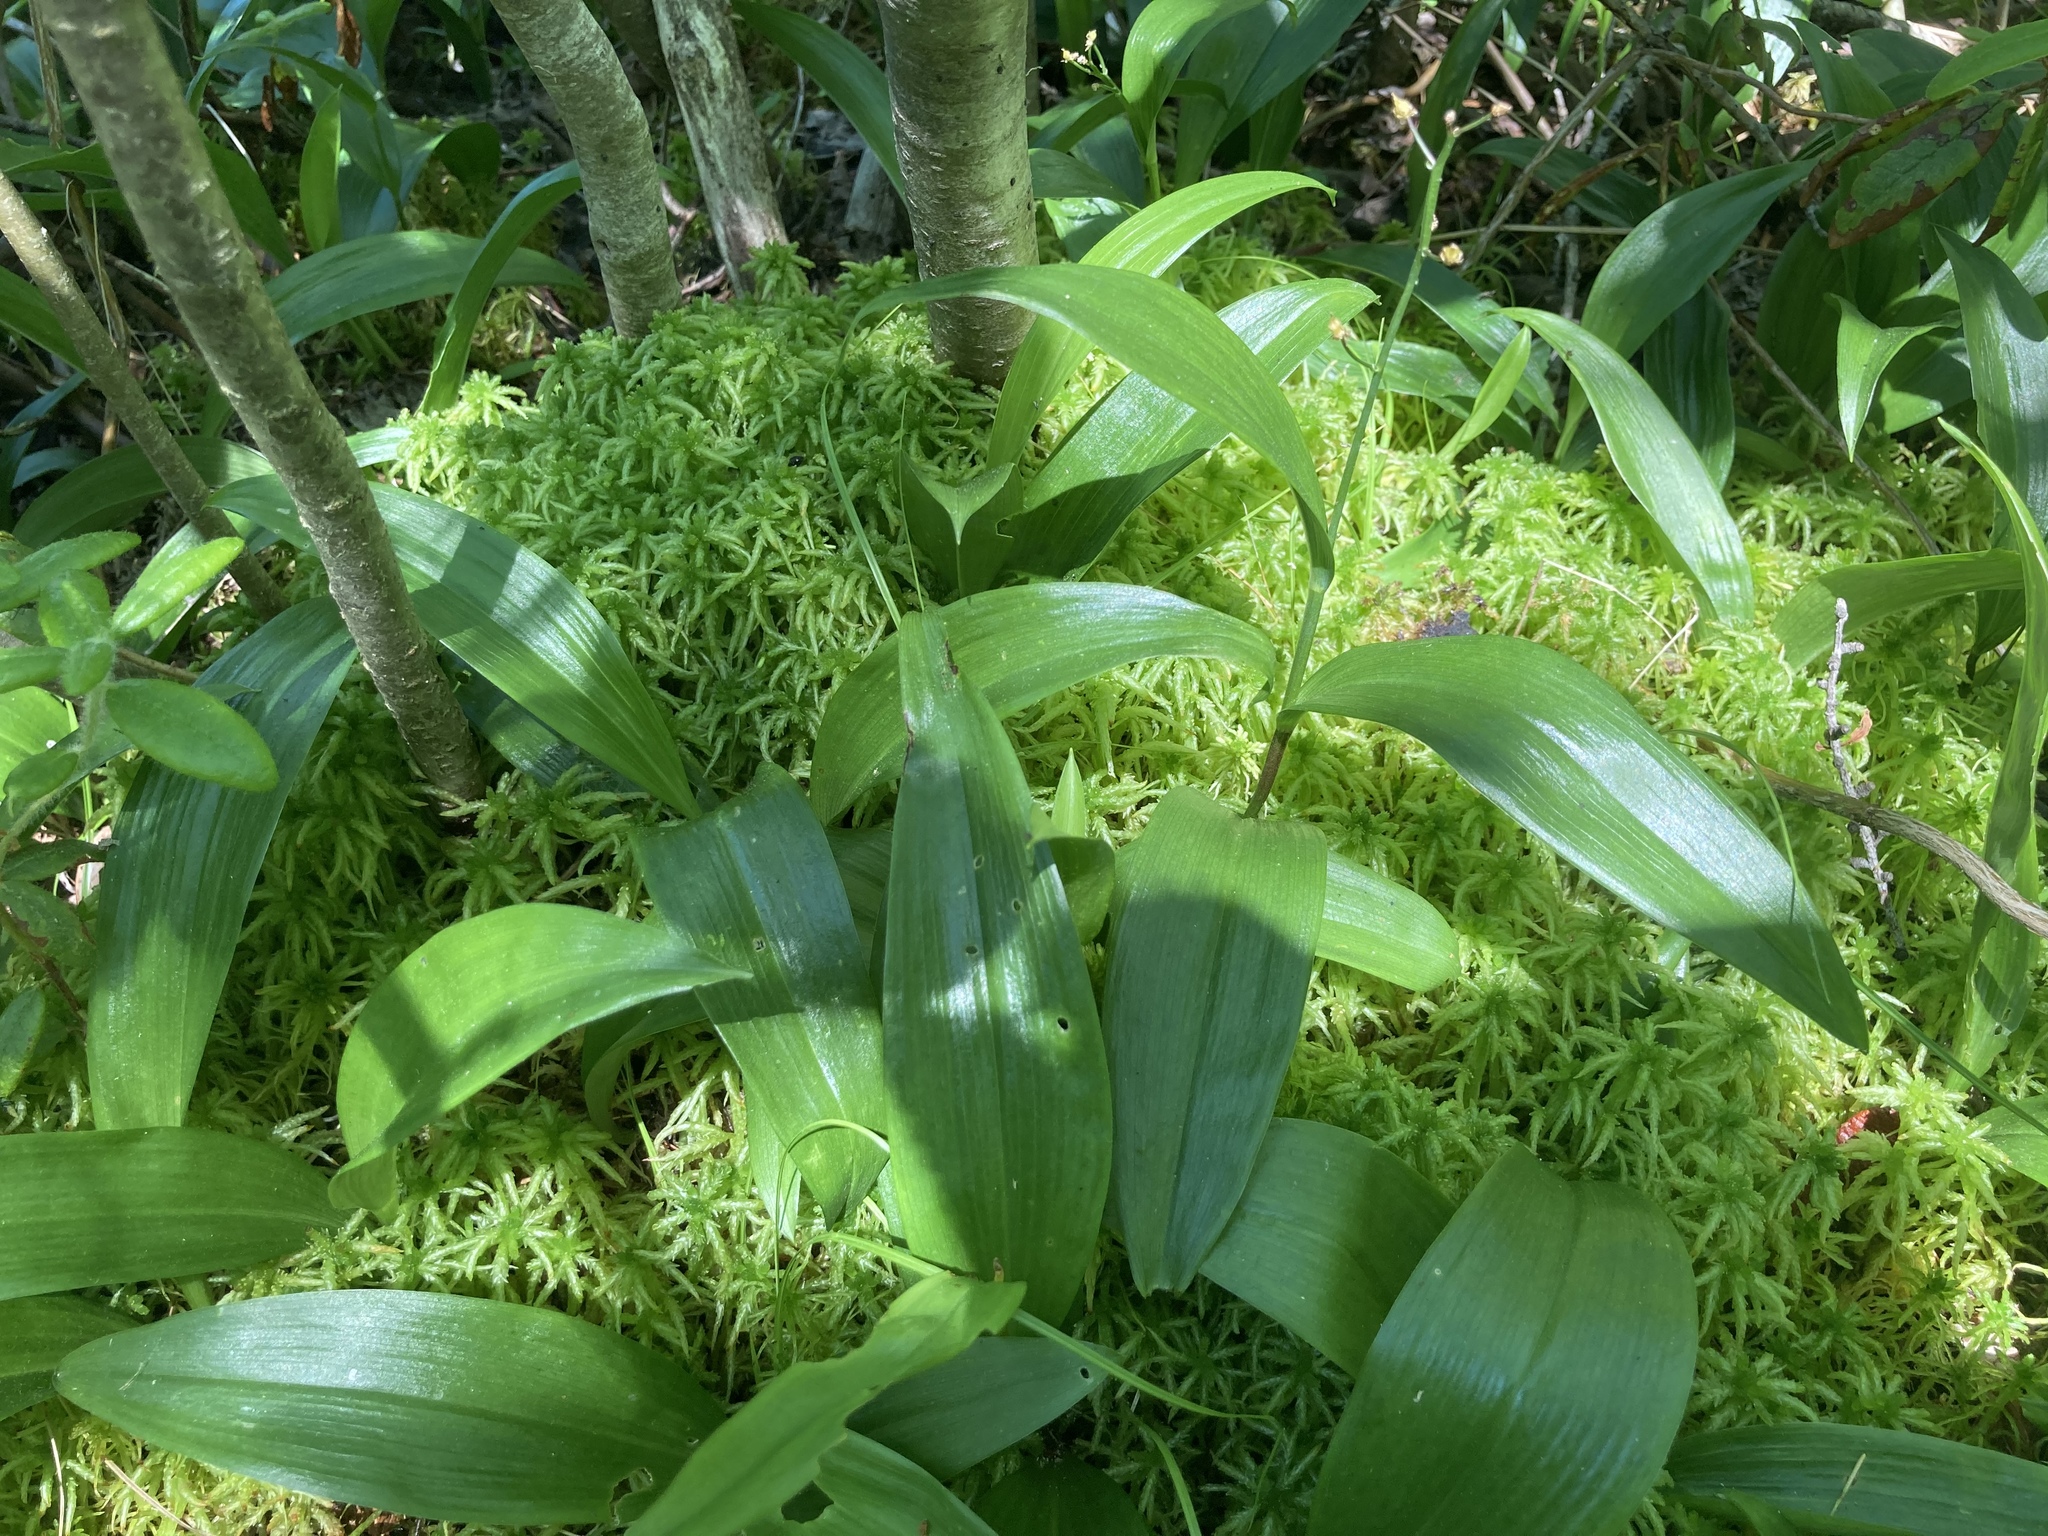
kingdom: Plantae
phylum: Tracheophyta
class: Liliopsida
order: Asparagales
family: Asparagaceae
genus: Maianthemum
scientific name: Maianthemum trifolium
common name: Swamp false solomon's seal
